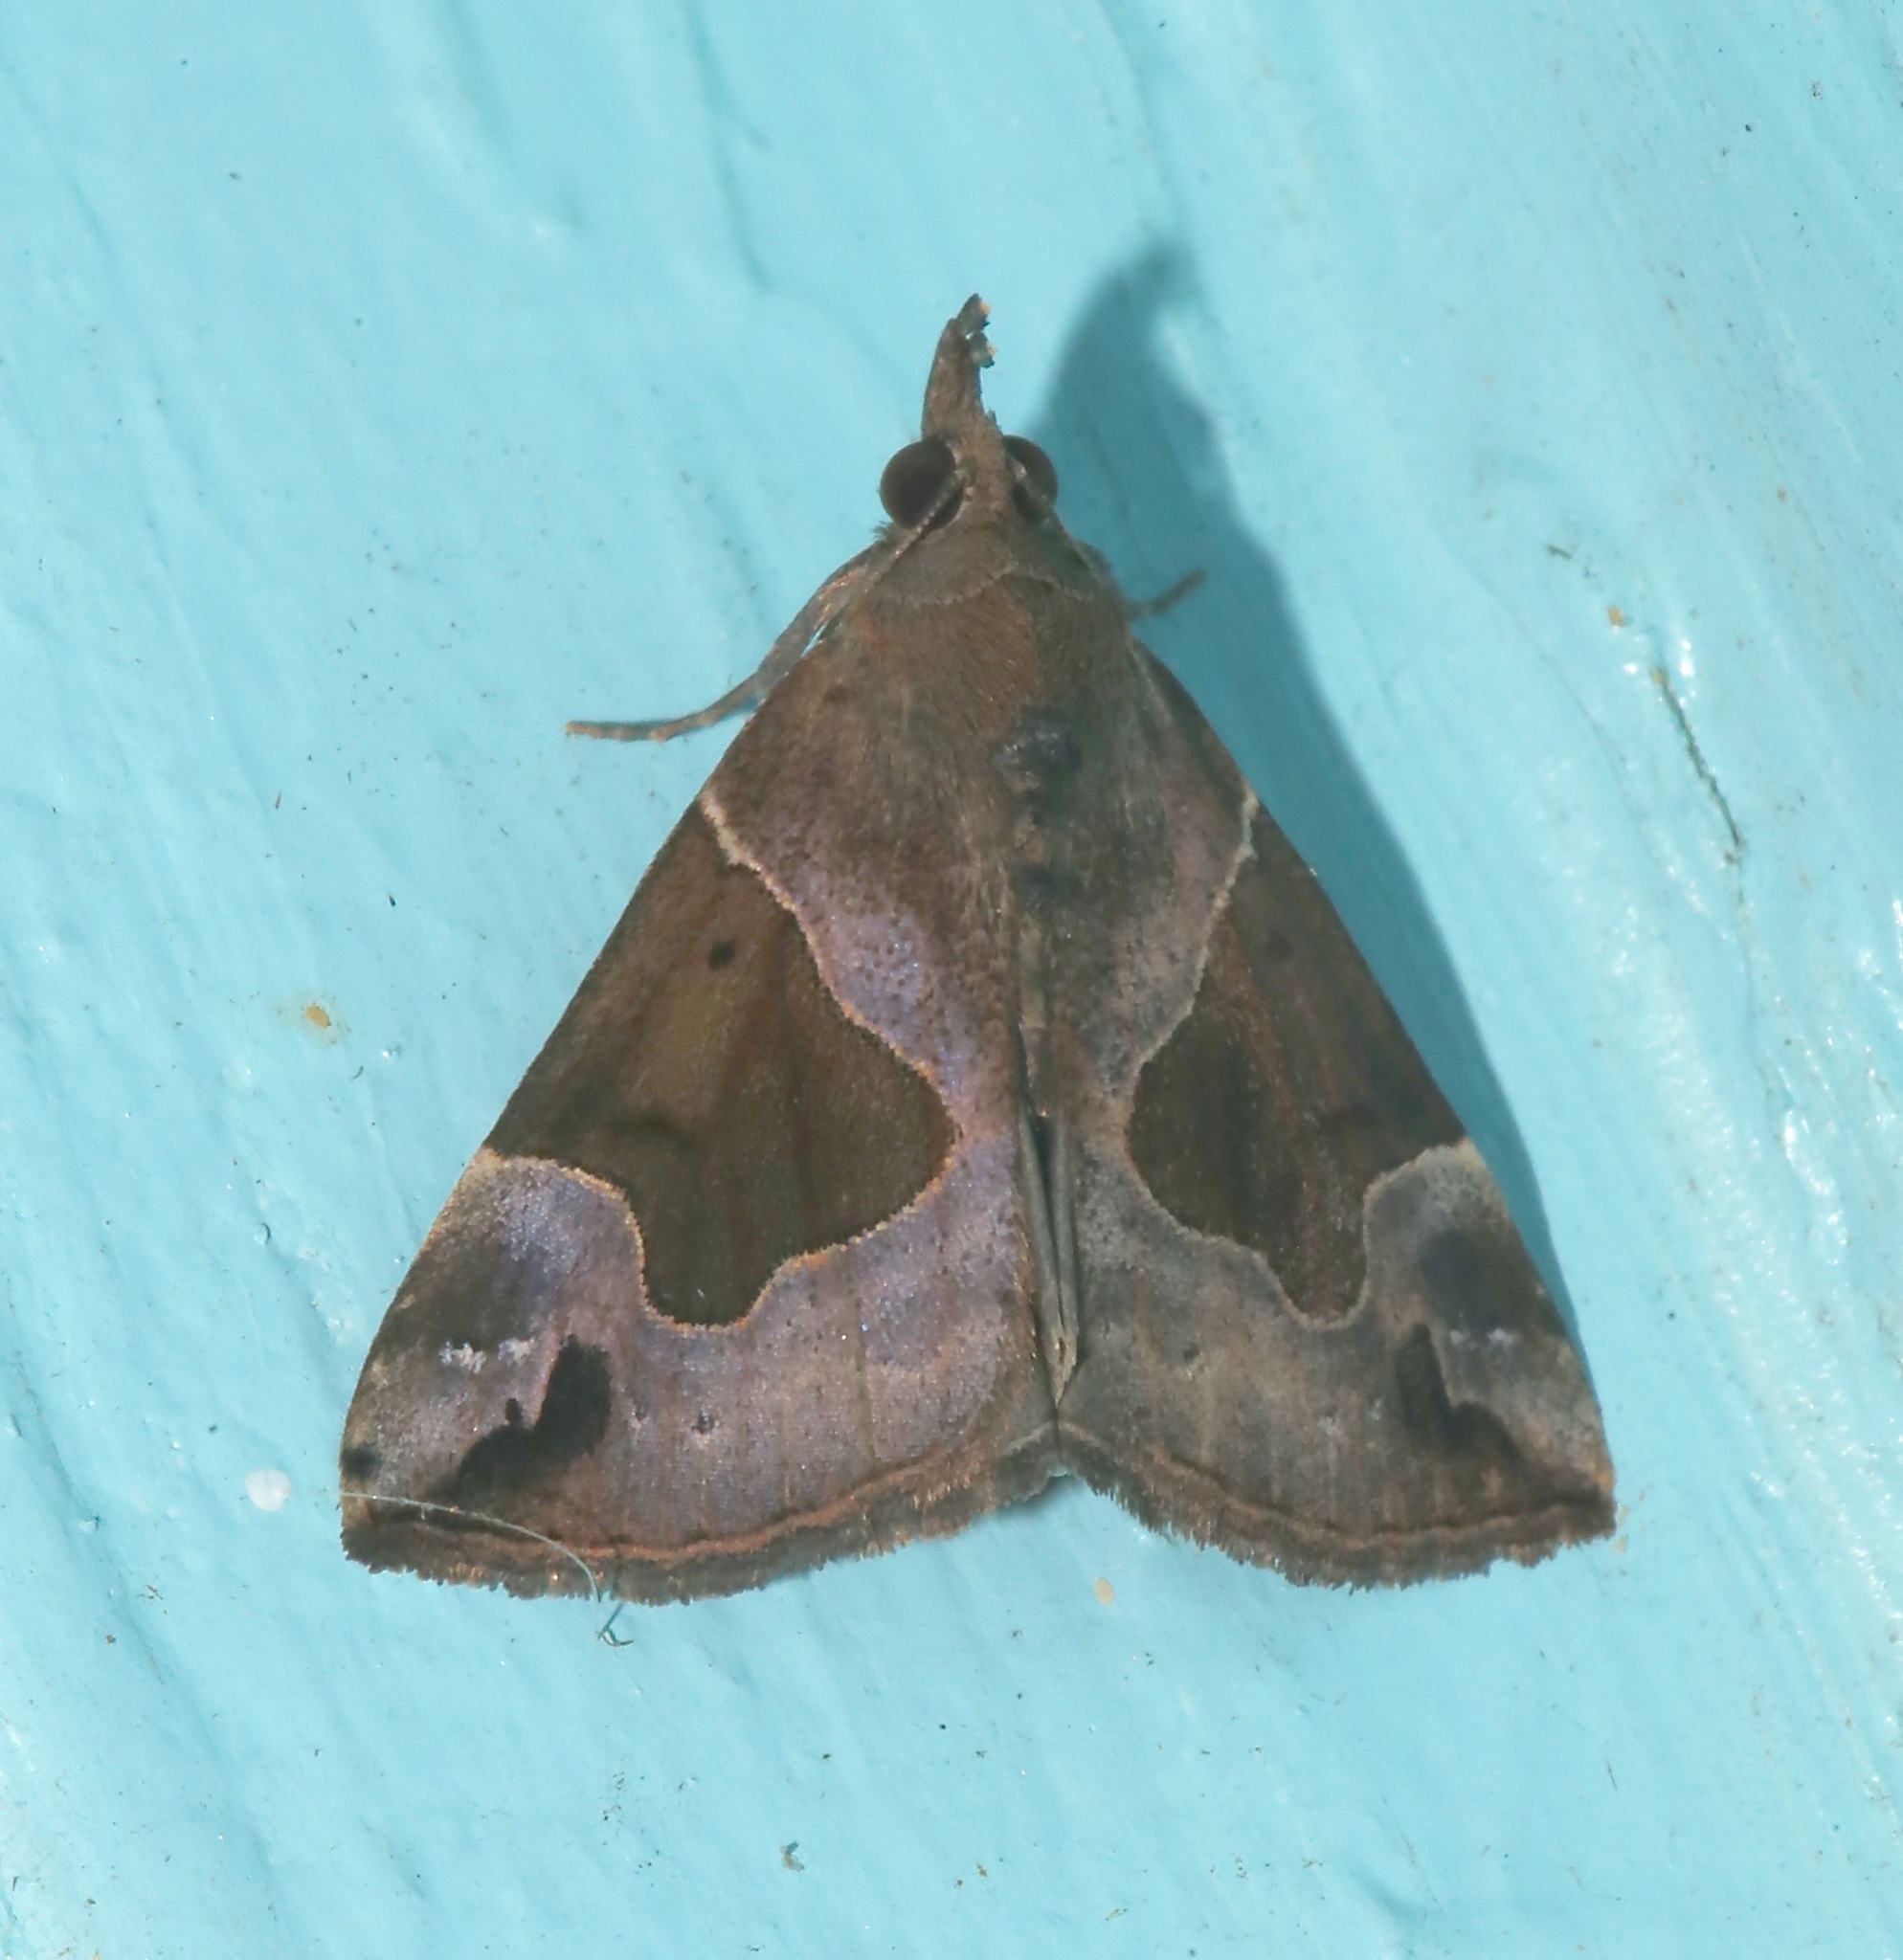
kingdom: Animalia
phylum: Arthropoda
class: Insecta
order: Lepidoptera
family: Erebidae
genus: Hypena
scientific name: Hypena manalis
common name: Flowing-line bomolocha moth
